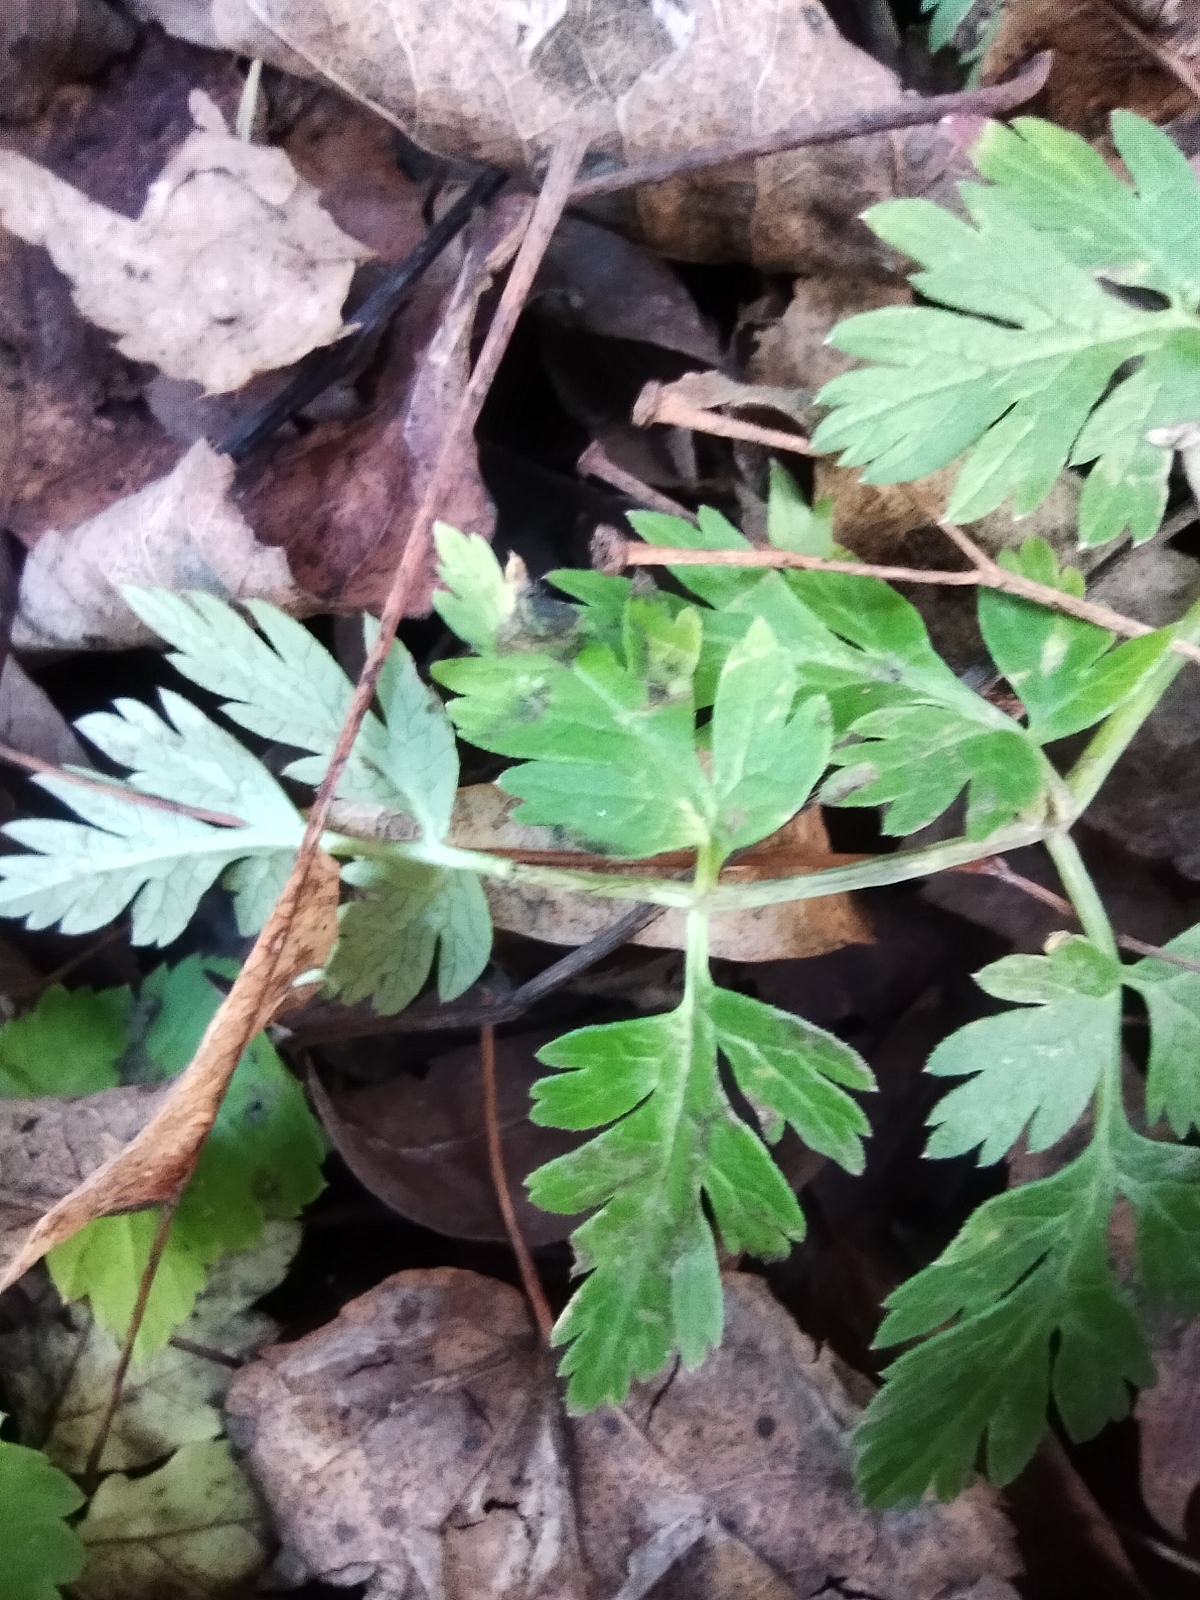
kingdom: Plantae
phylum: Tracheophyta
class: Magnoliopsida
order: Apiales
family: Apiaceae
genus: Anthriscus
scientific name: Anthriscus sylvestris
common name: Cow parsley
